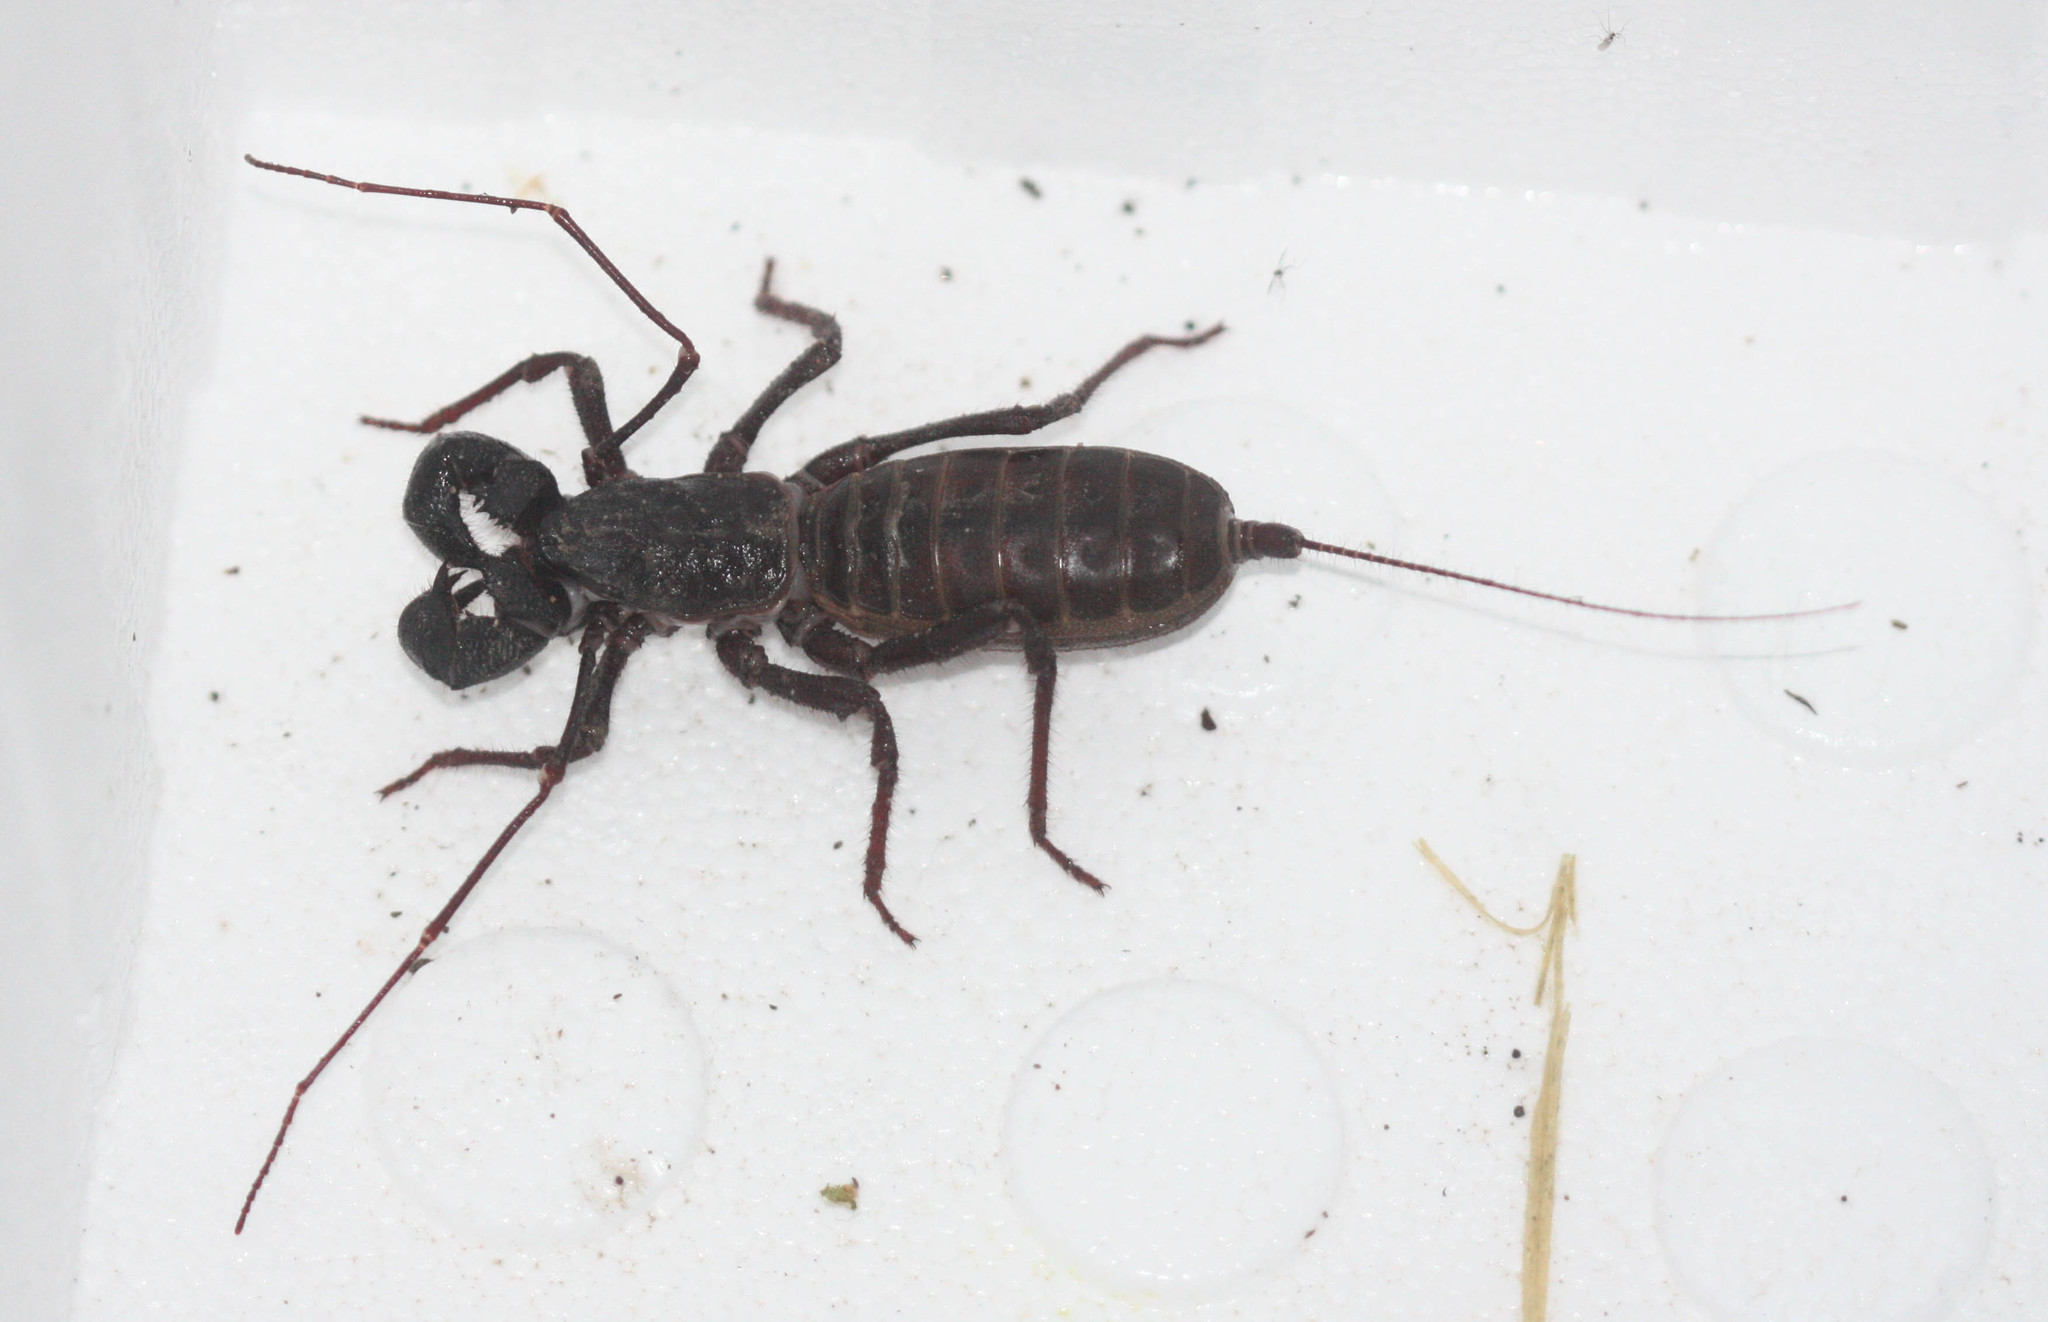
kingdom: Animalia
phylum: Arthropoda
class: Arachnida
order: Uropygi
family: Thelyphonidae
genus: Mastigoproctus
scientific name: Mastigoproctus tohono
